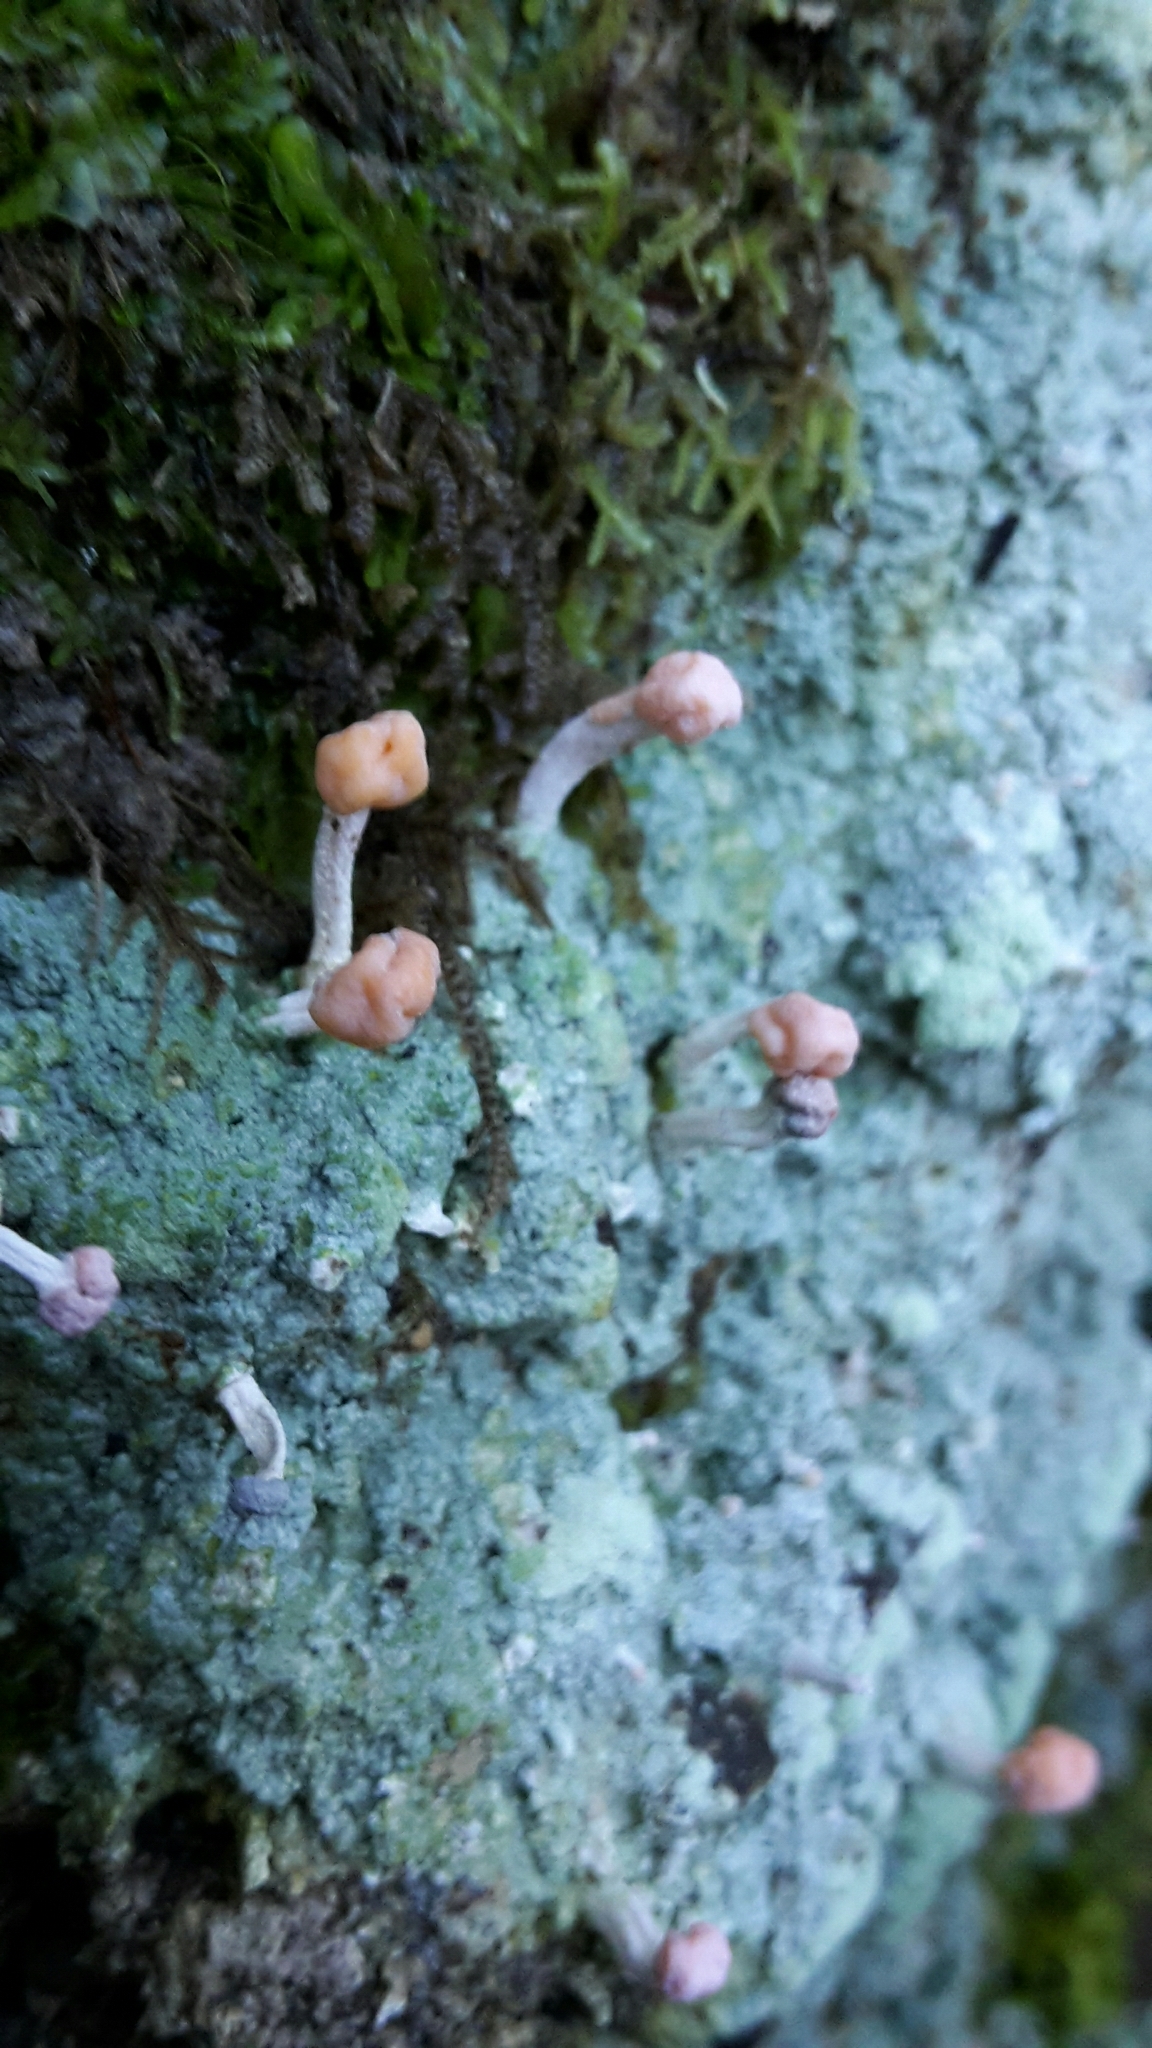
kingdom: Fungi
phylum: Ascomycota
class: Lecanoromycetes
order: Pertusariales
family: Icmadophilaceae
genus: Dibaeis
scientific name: Dibaeis arcuata
